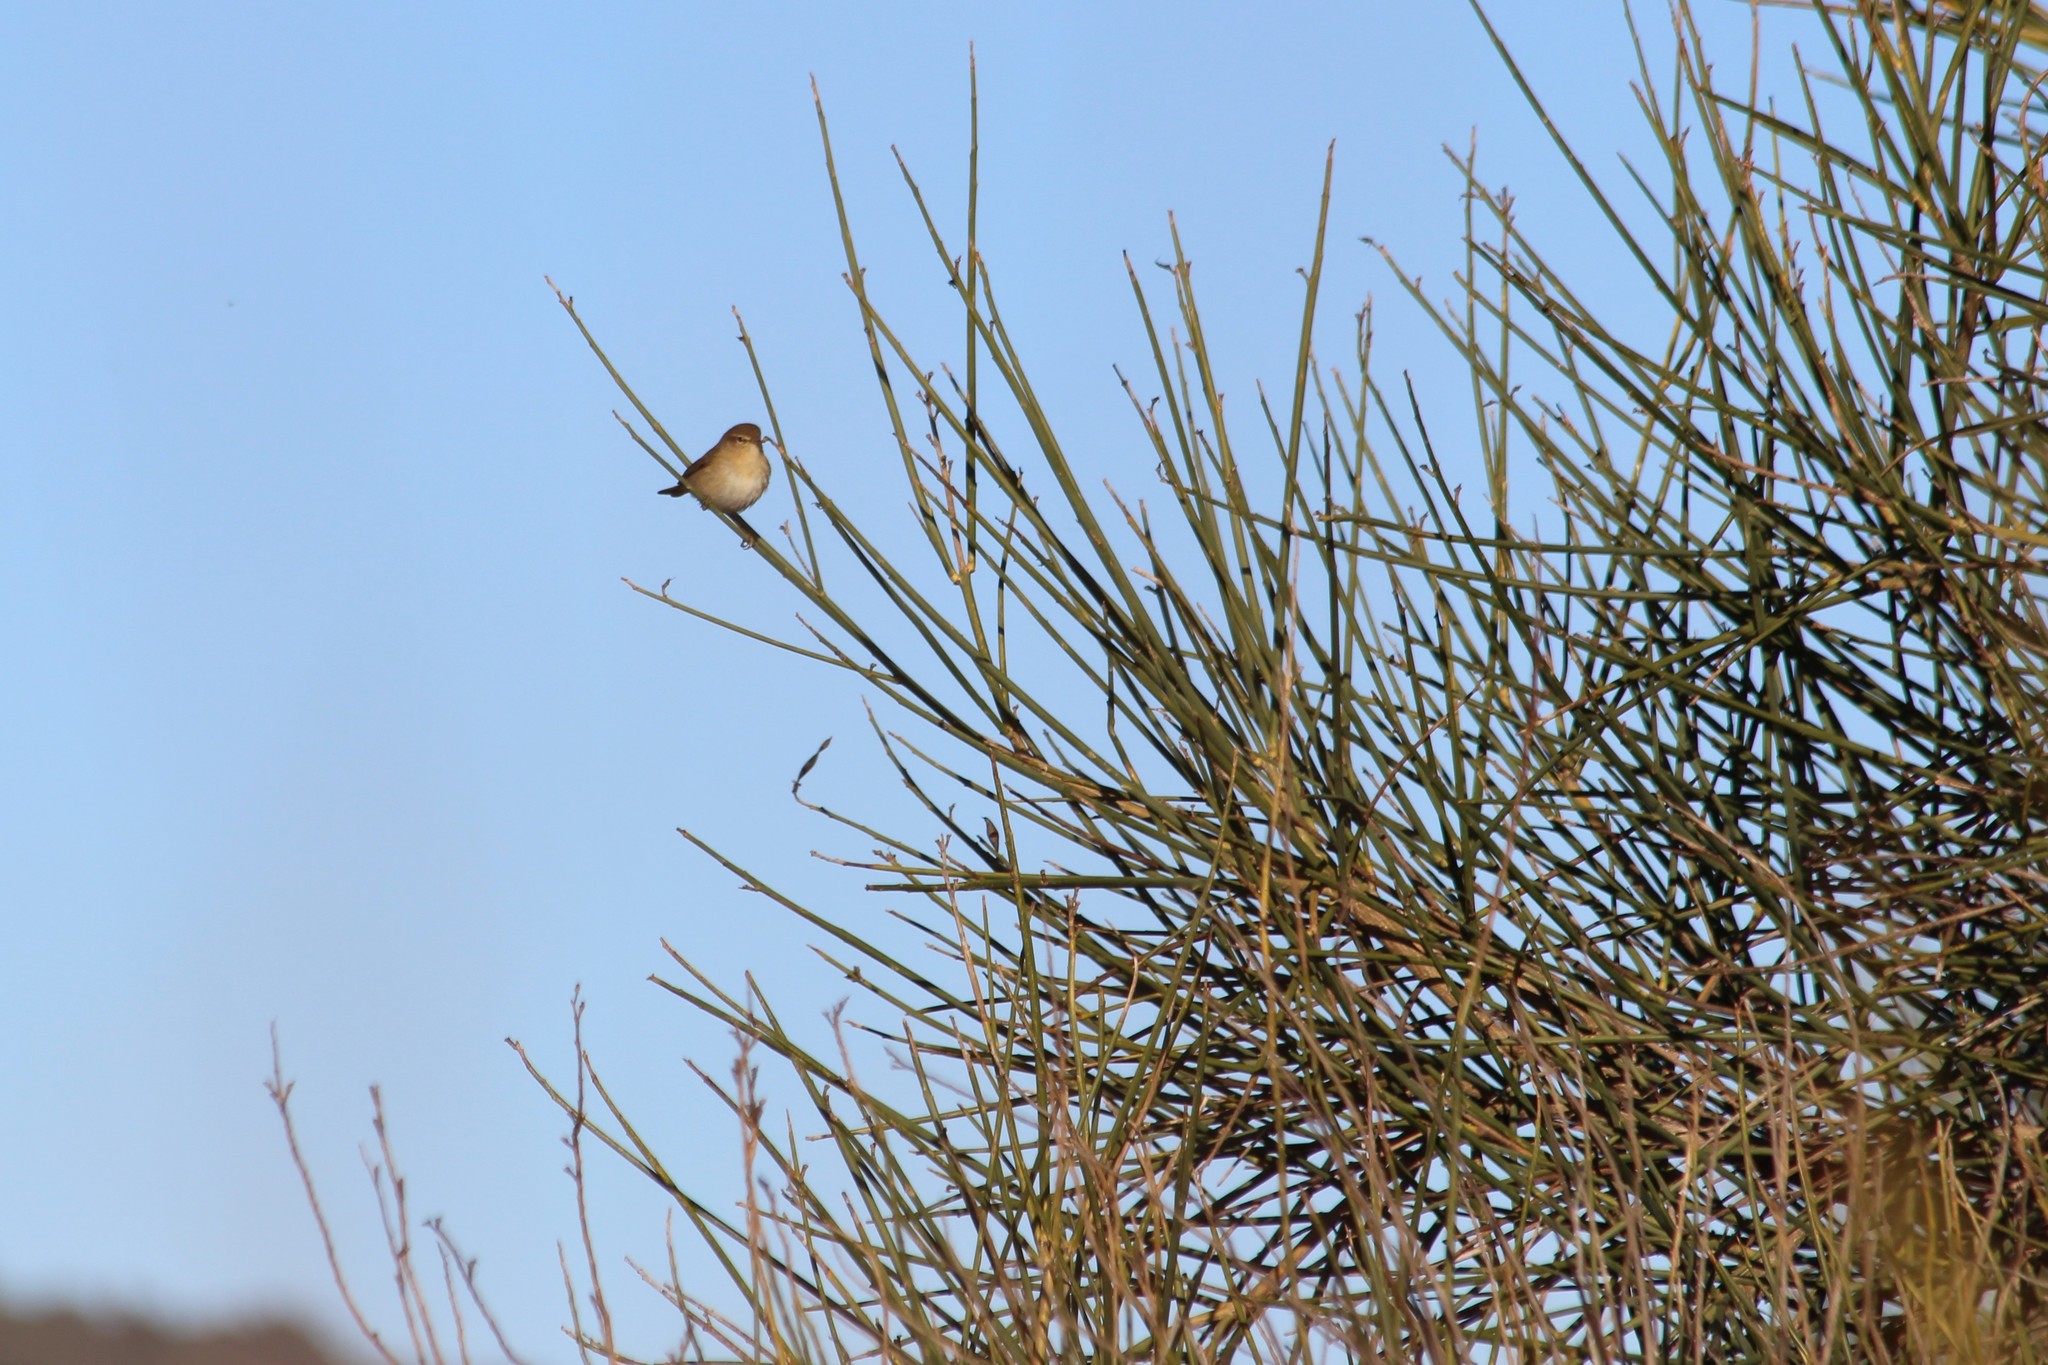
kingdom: Animalia
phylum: Chordata
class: Aves
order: Passeriformes
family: Phylloscopidae
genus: Phylloscopus
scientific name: Phylloscopus collybita
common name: Common chiffchaff
